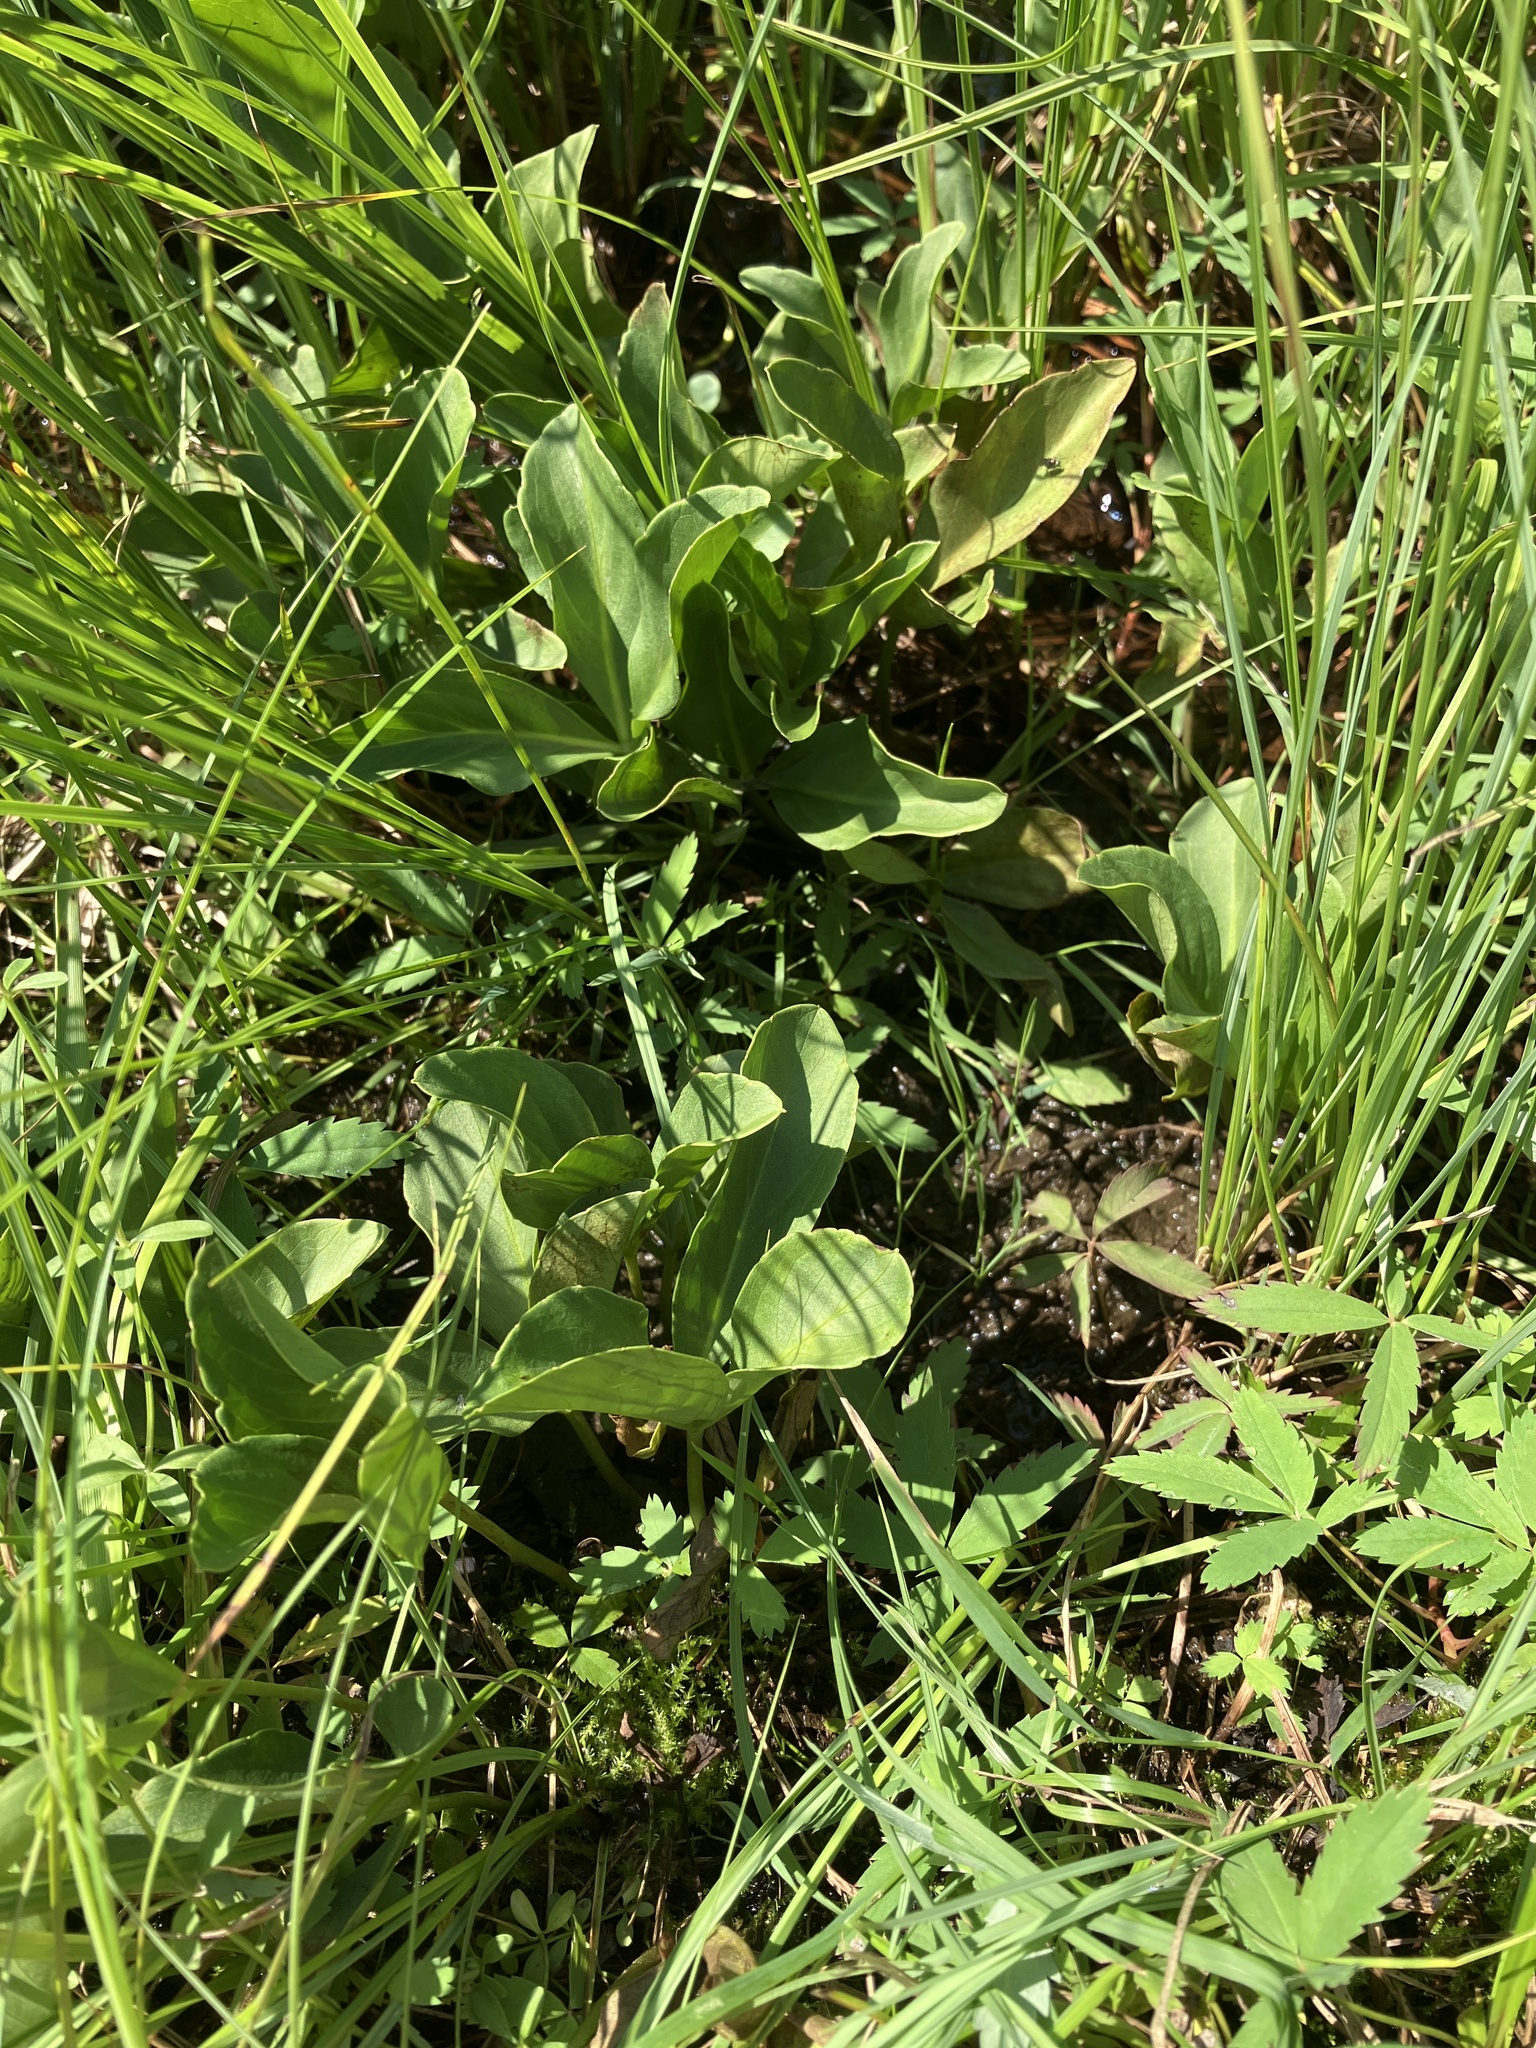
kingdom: Plantae
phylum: Tracheophyta
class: Magnoliopsida
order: Asterales
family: Menyanthaceae
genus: Menyanthes
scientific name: Menyanthes trifoliata
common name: Bogbean
